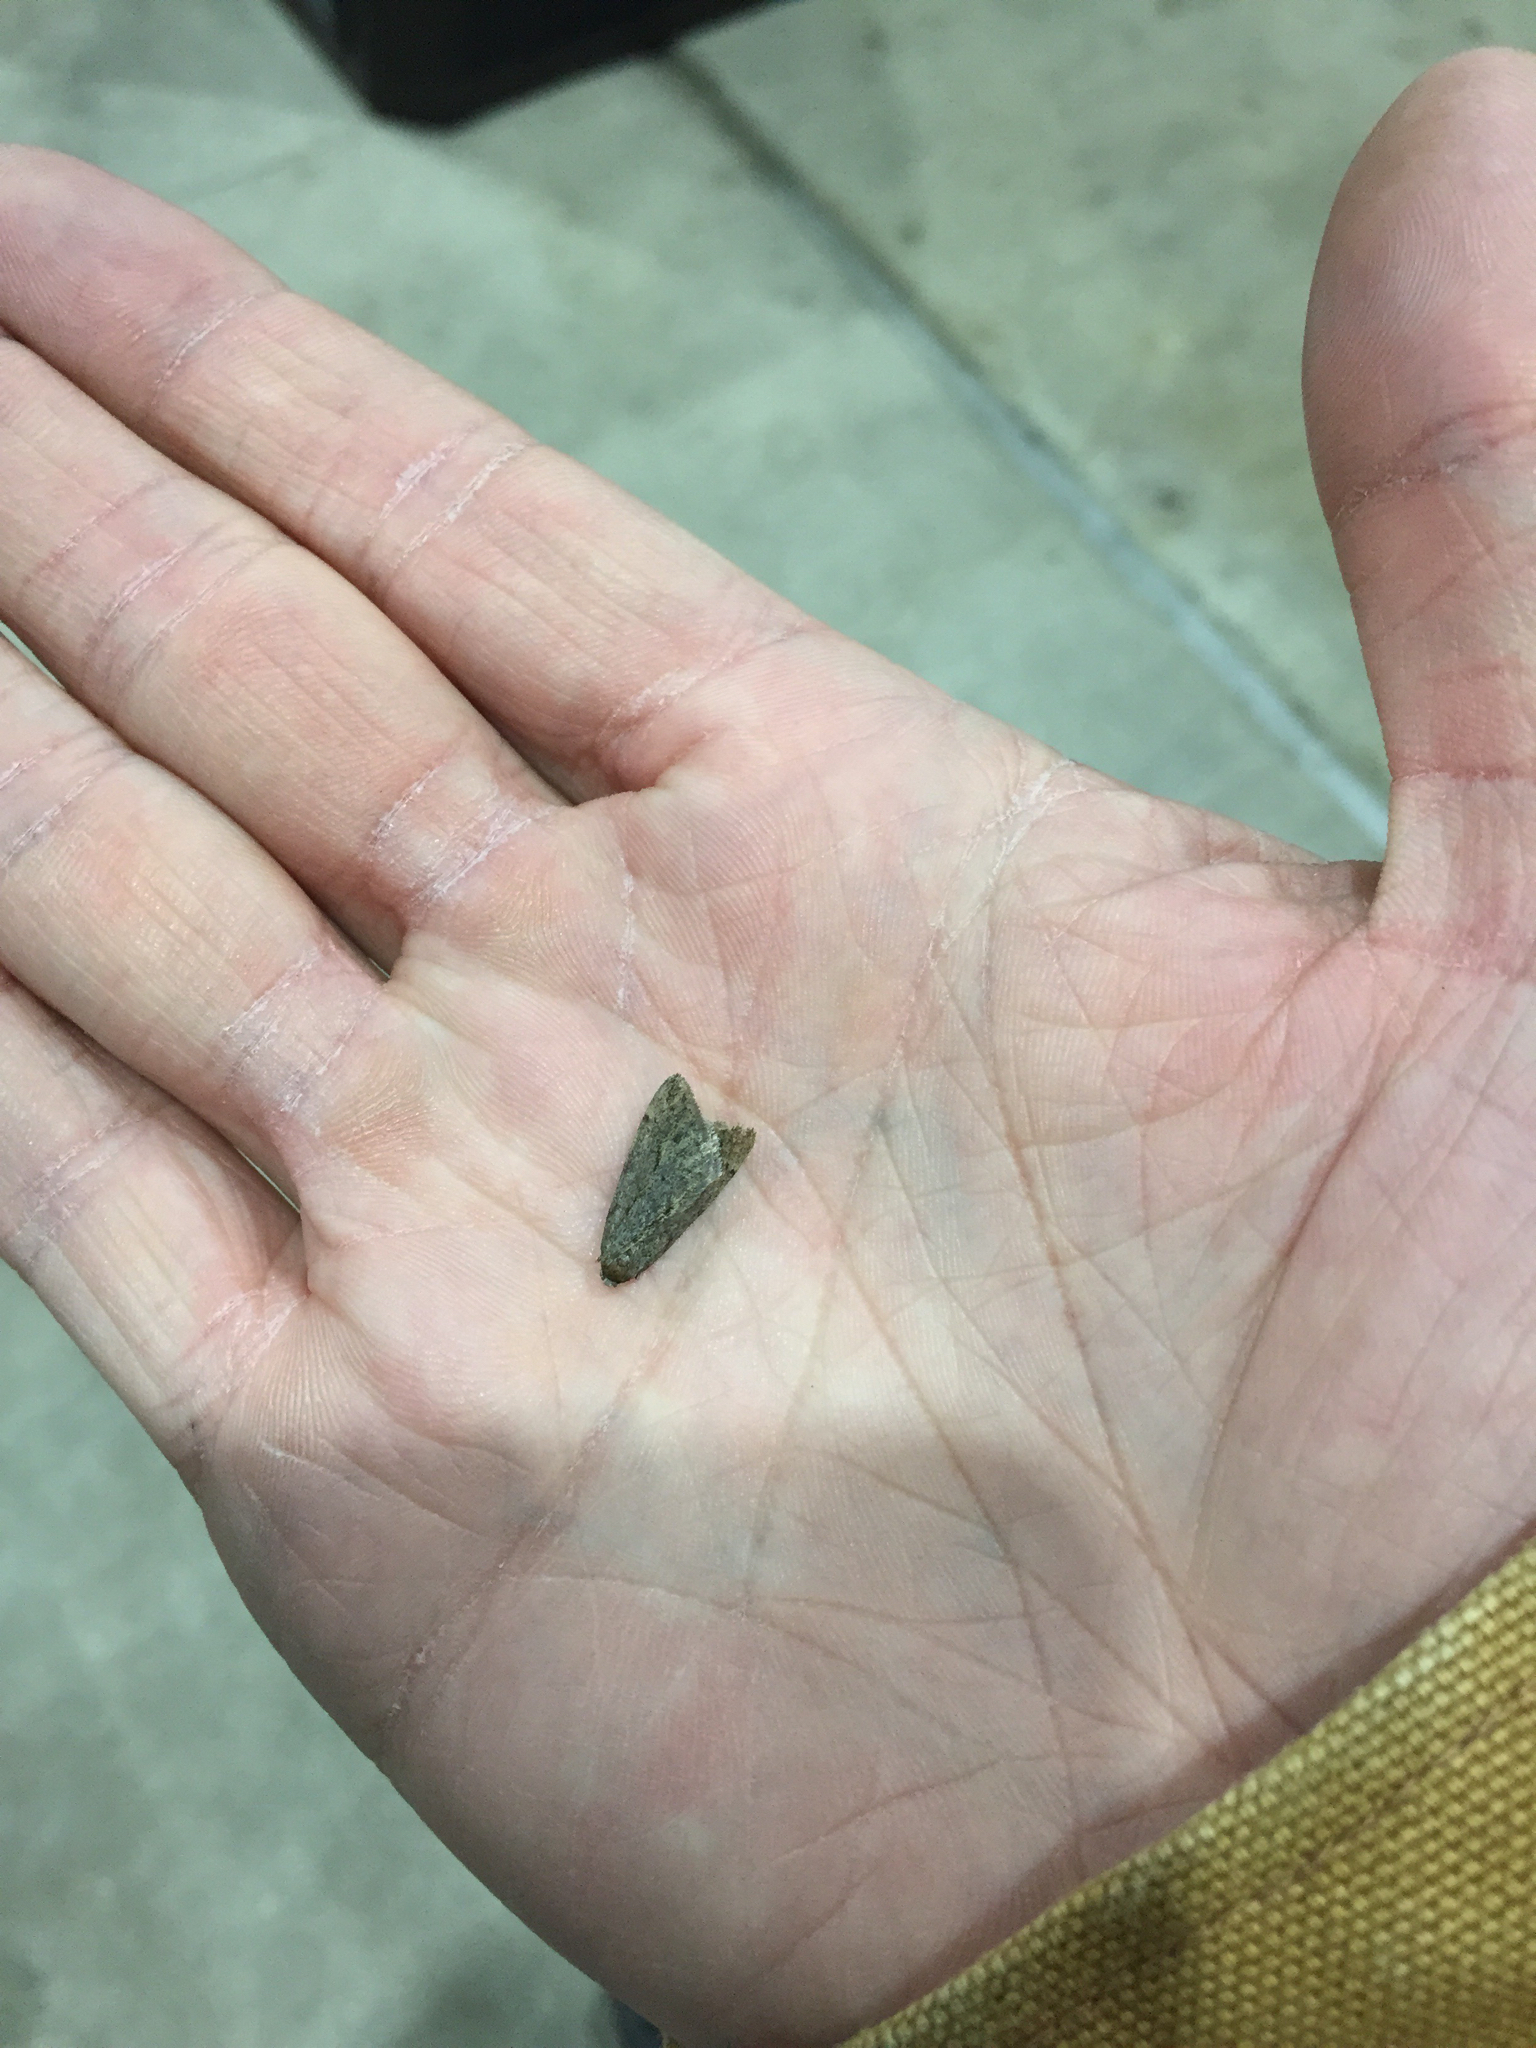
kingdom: Animalia
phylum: Arthropoda
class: Insecta
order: Lepidoptera
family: Geometridae
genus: Paleacrita
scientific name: Paleacrita vernata
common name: Spring cankerworm
